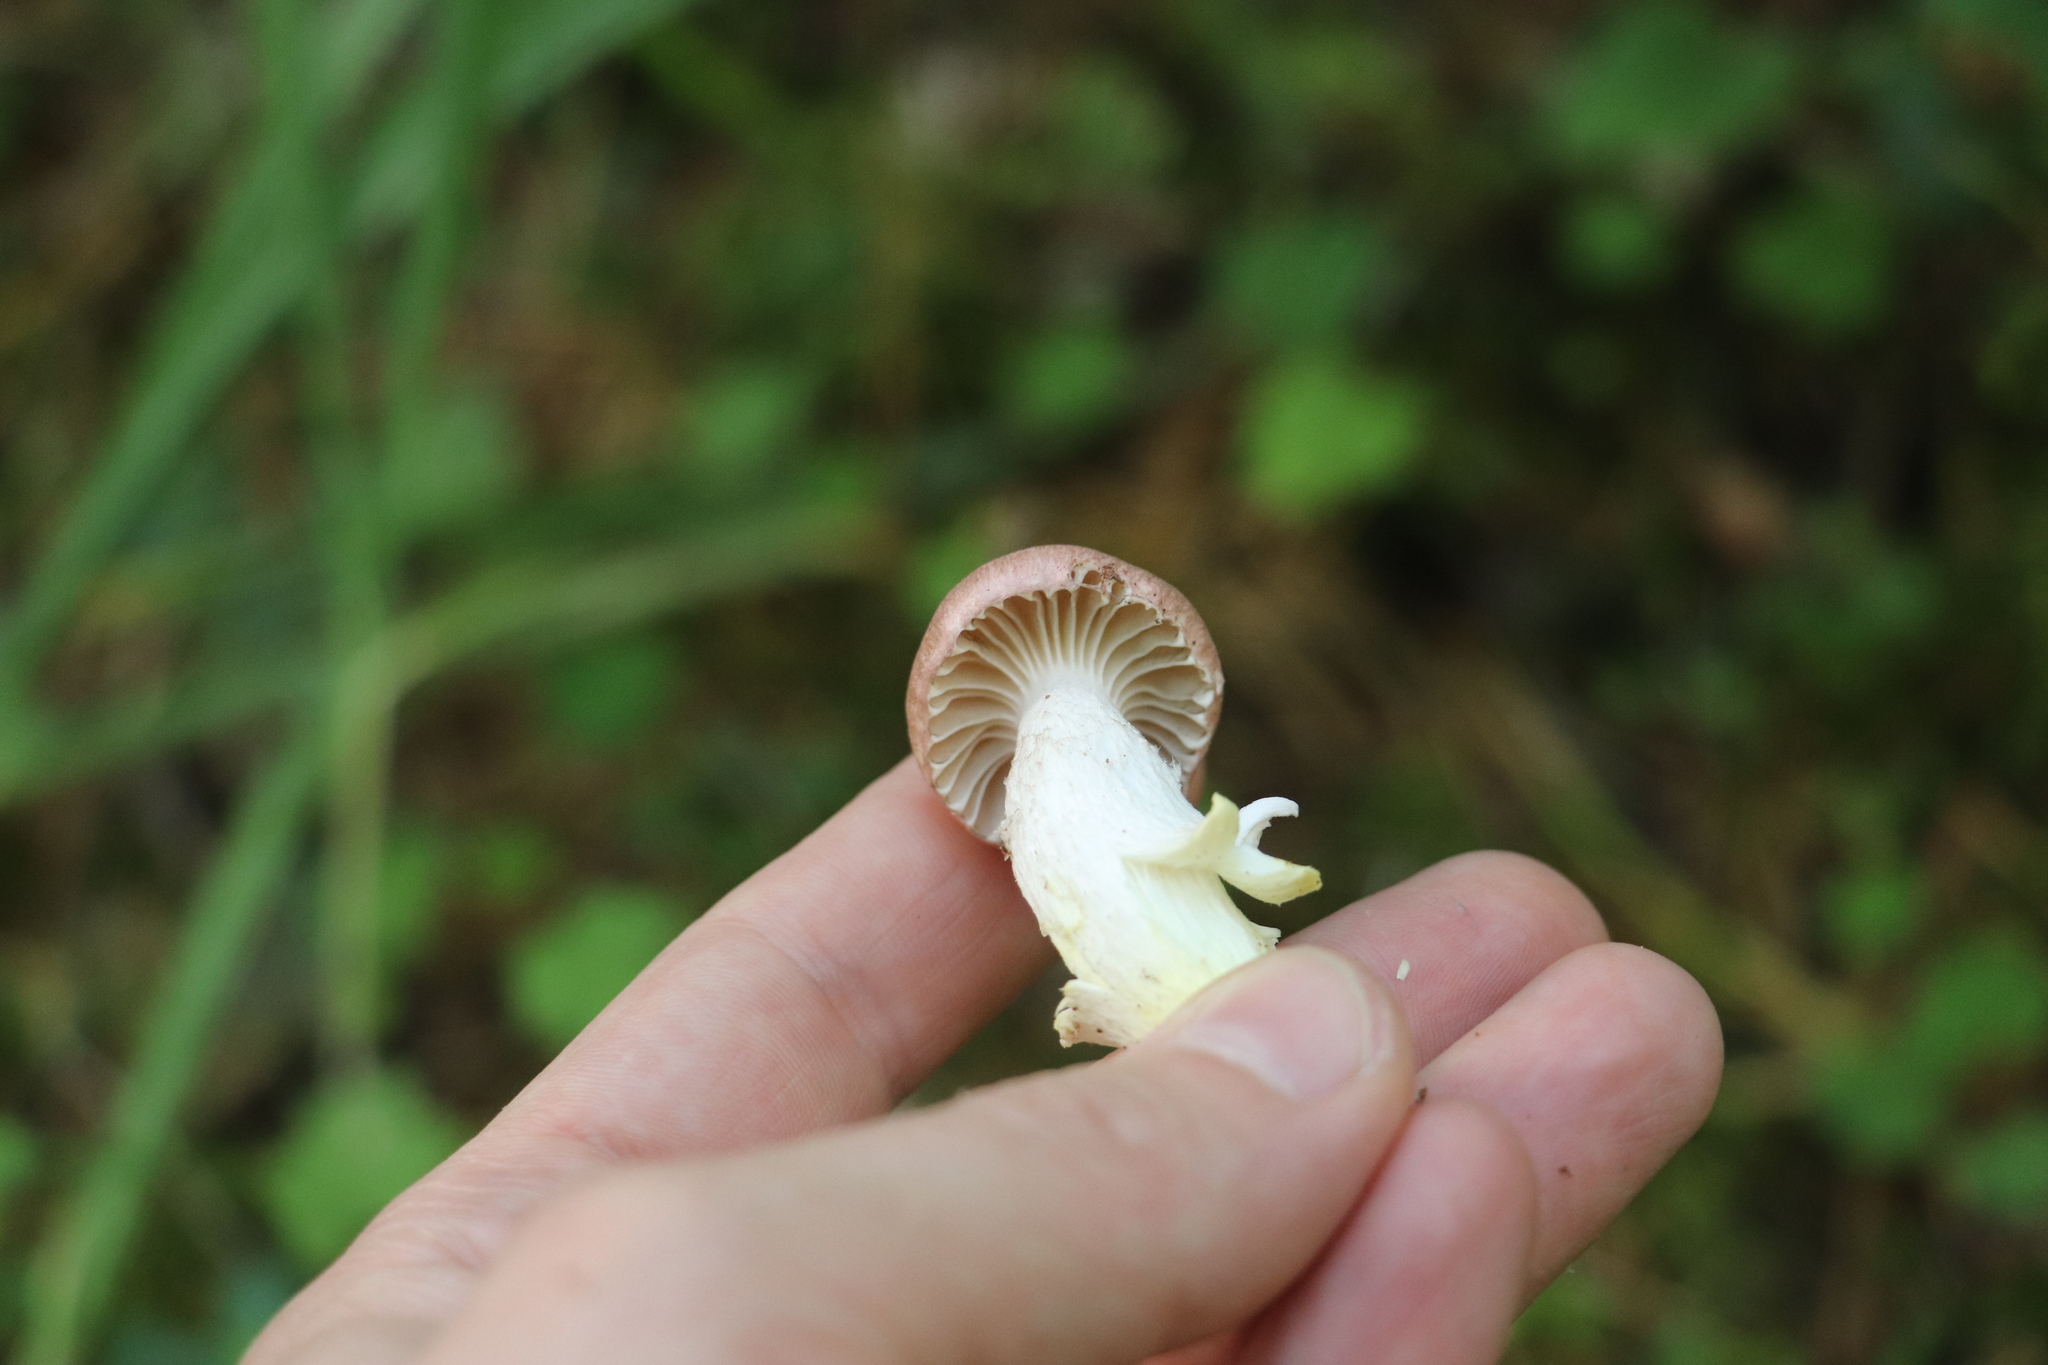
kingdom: Fungi
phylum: Basidiomycota
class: Agaricomycetes
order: Boletales
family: Gomphidiaceae
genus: Gomphidius
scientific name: Gomphidius flavipes
